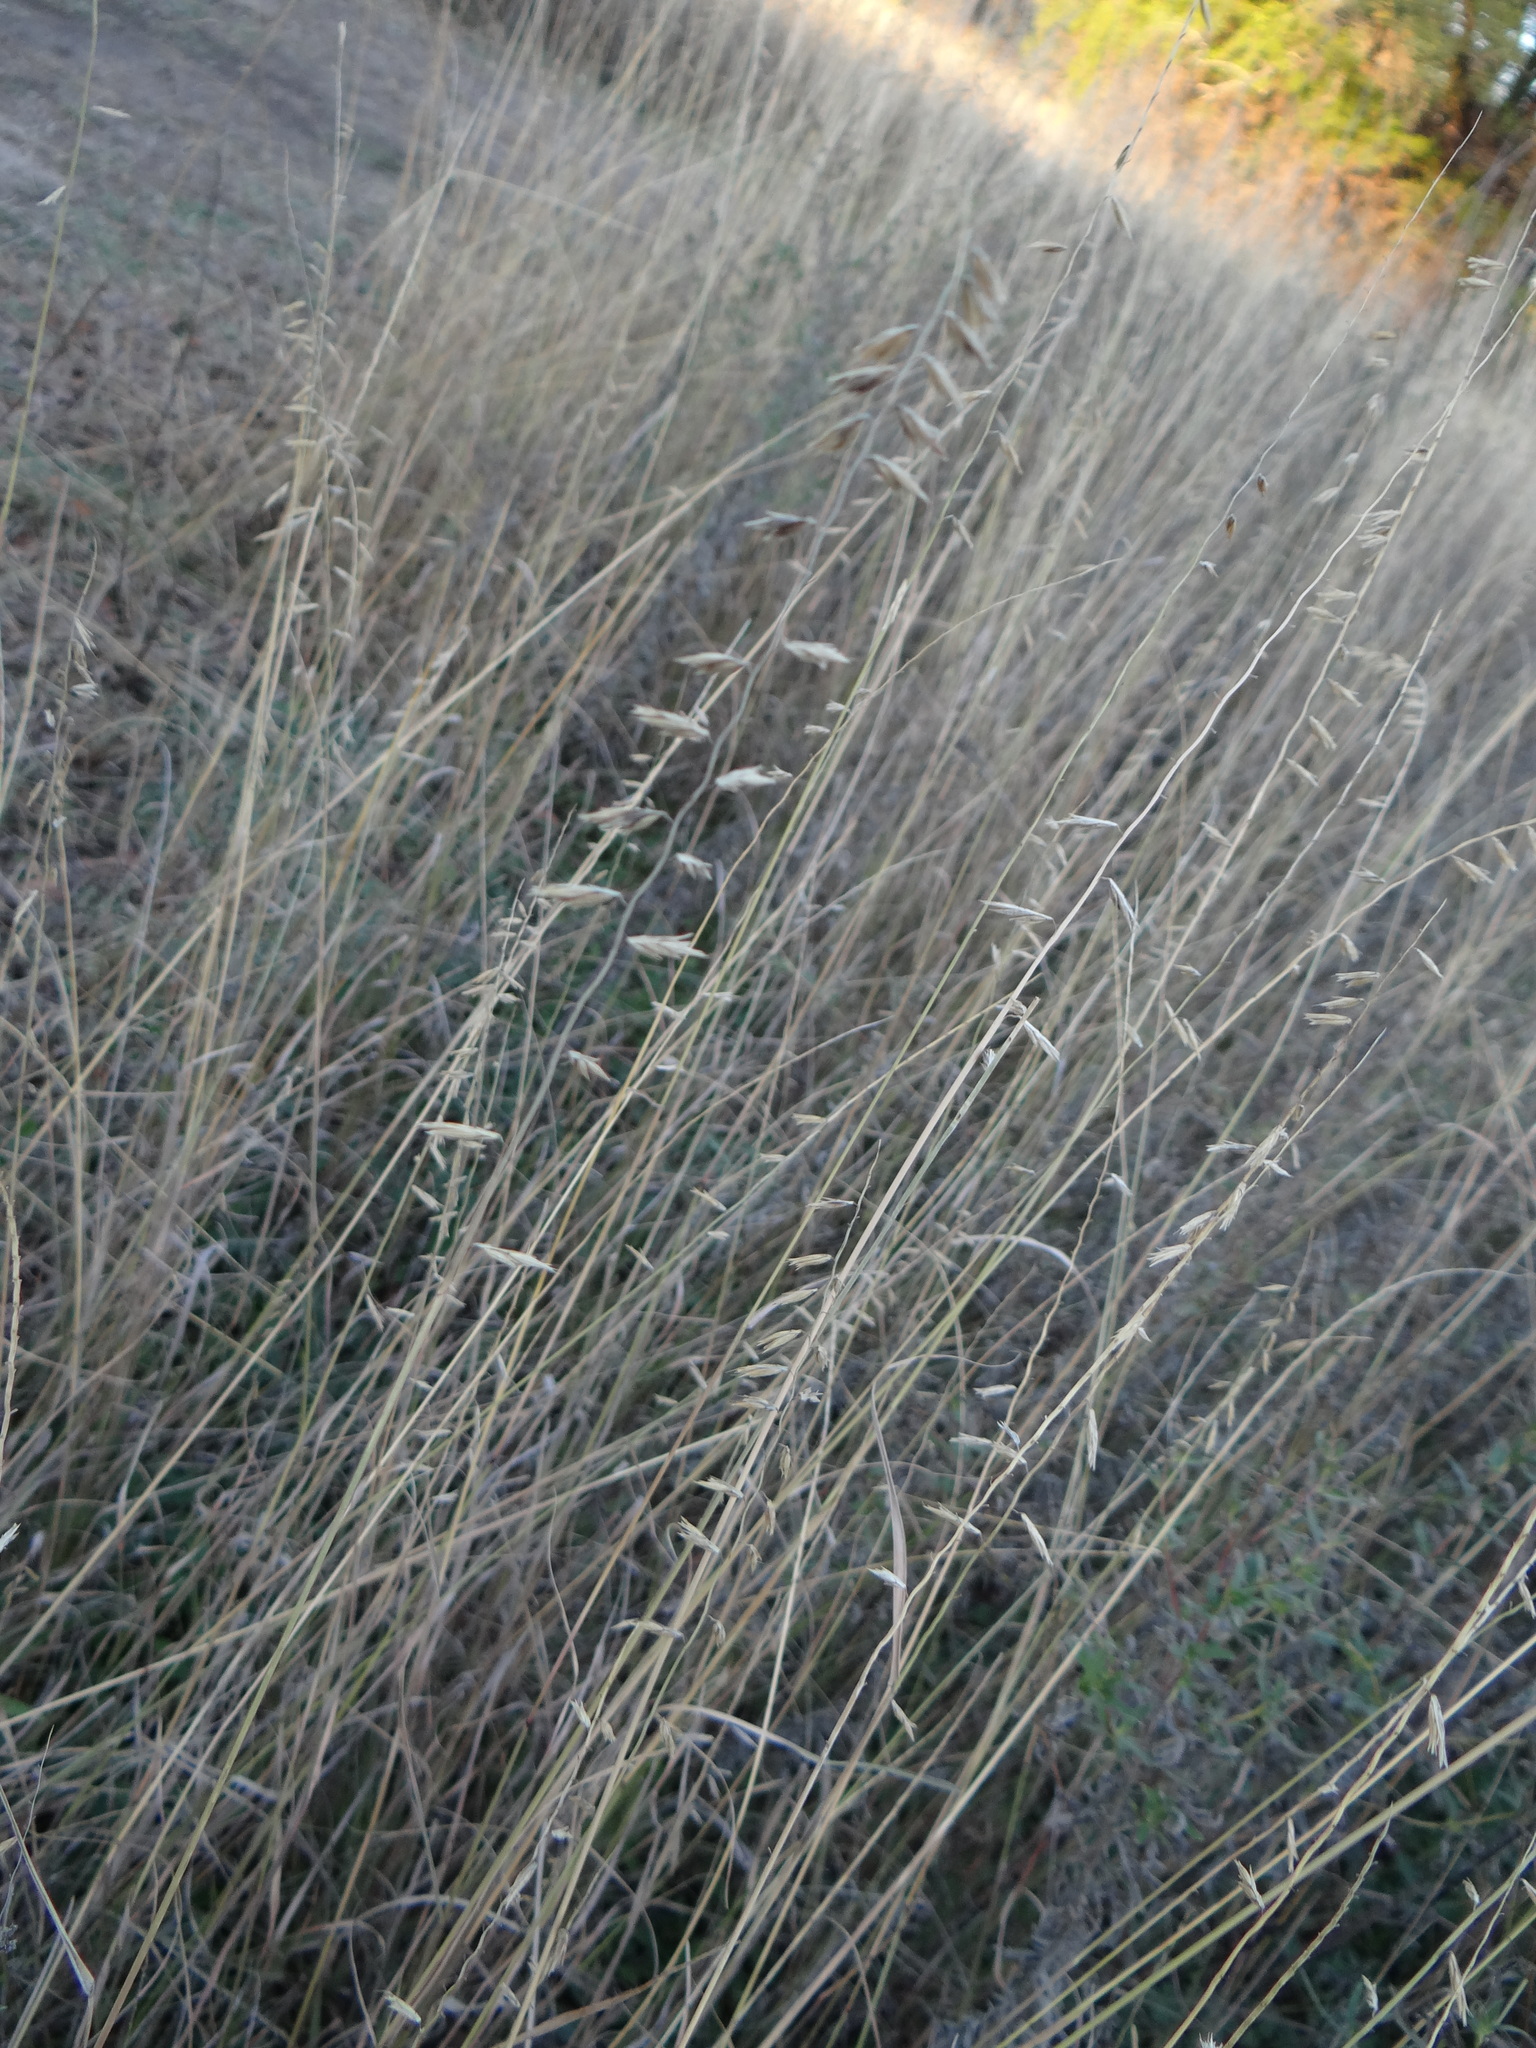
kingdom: Plantae
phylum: Tracheophyta
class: Liliopsida
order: Poales
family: Poaceae
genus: Bouteloua
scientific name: Bouteloua curtipendula
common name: Side-oats grama
